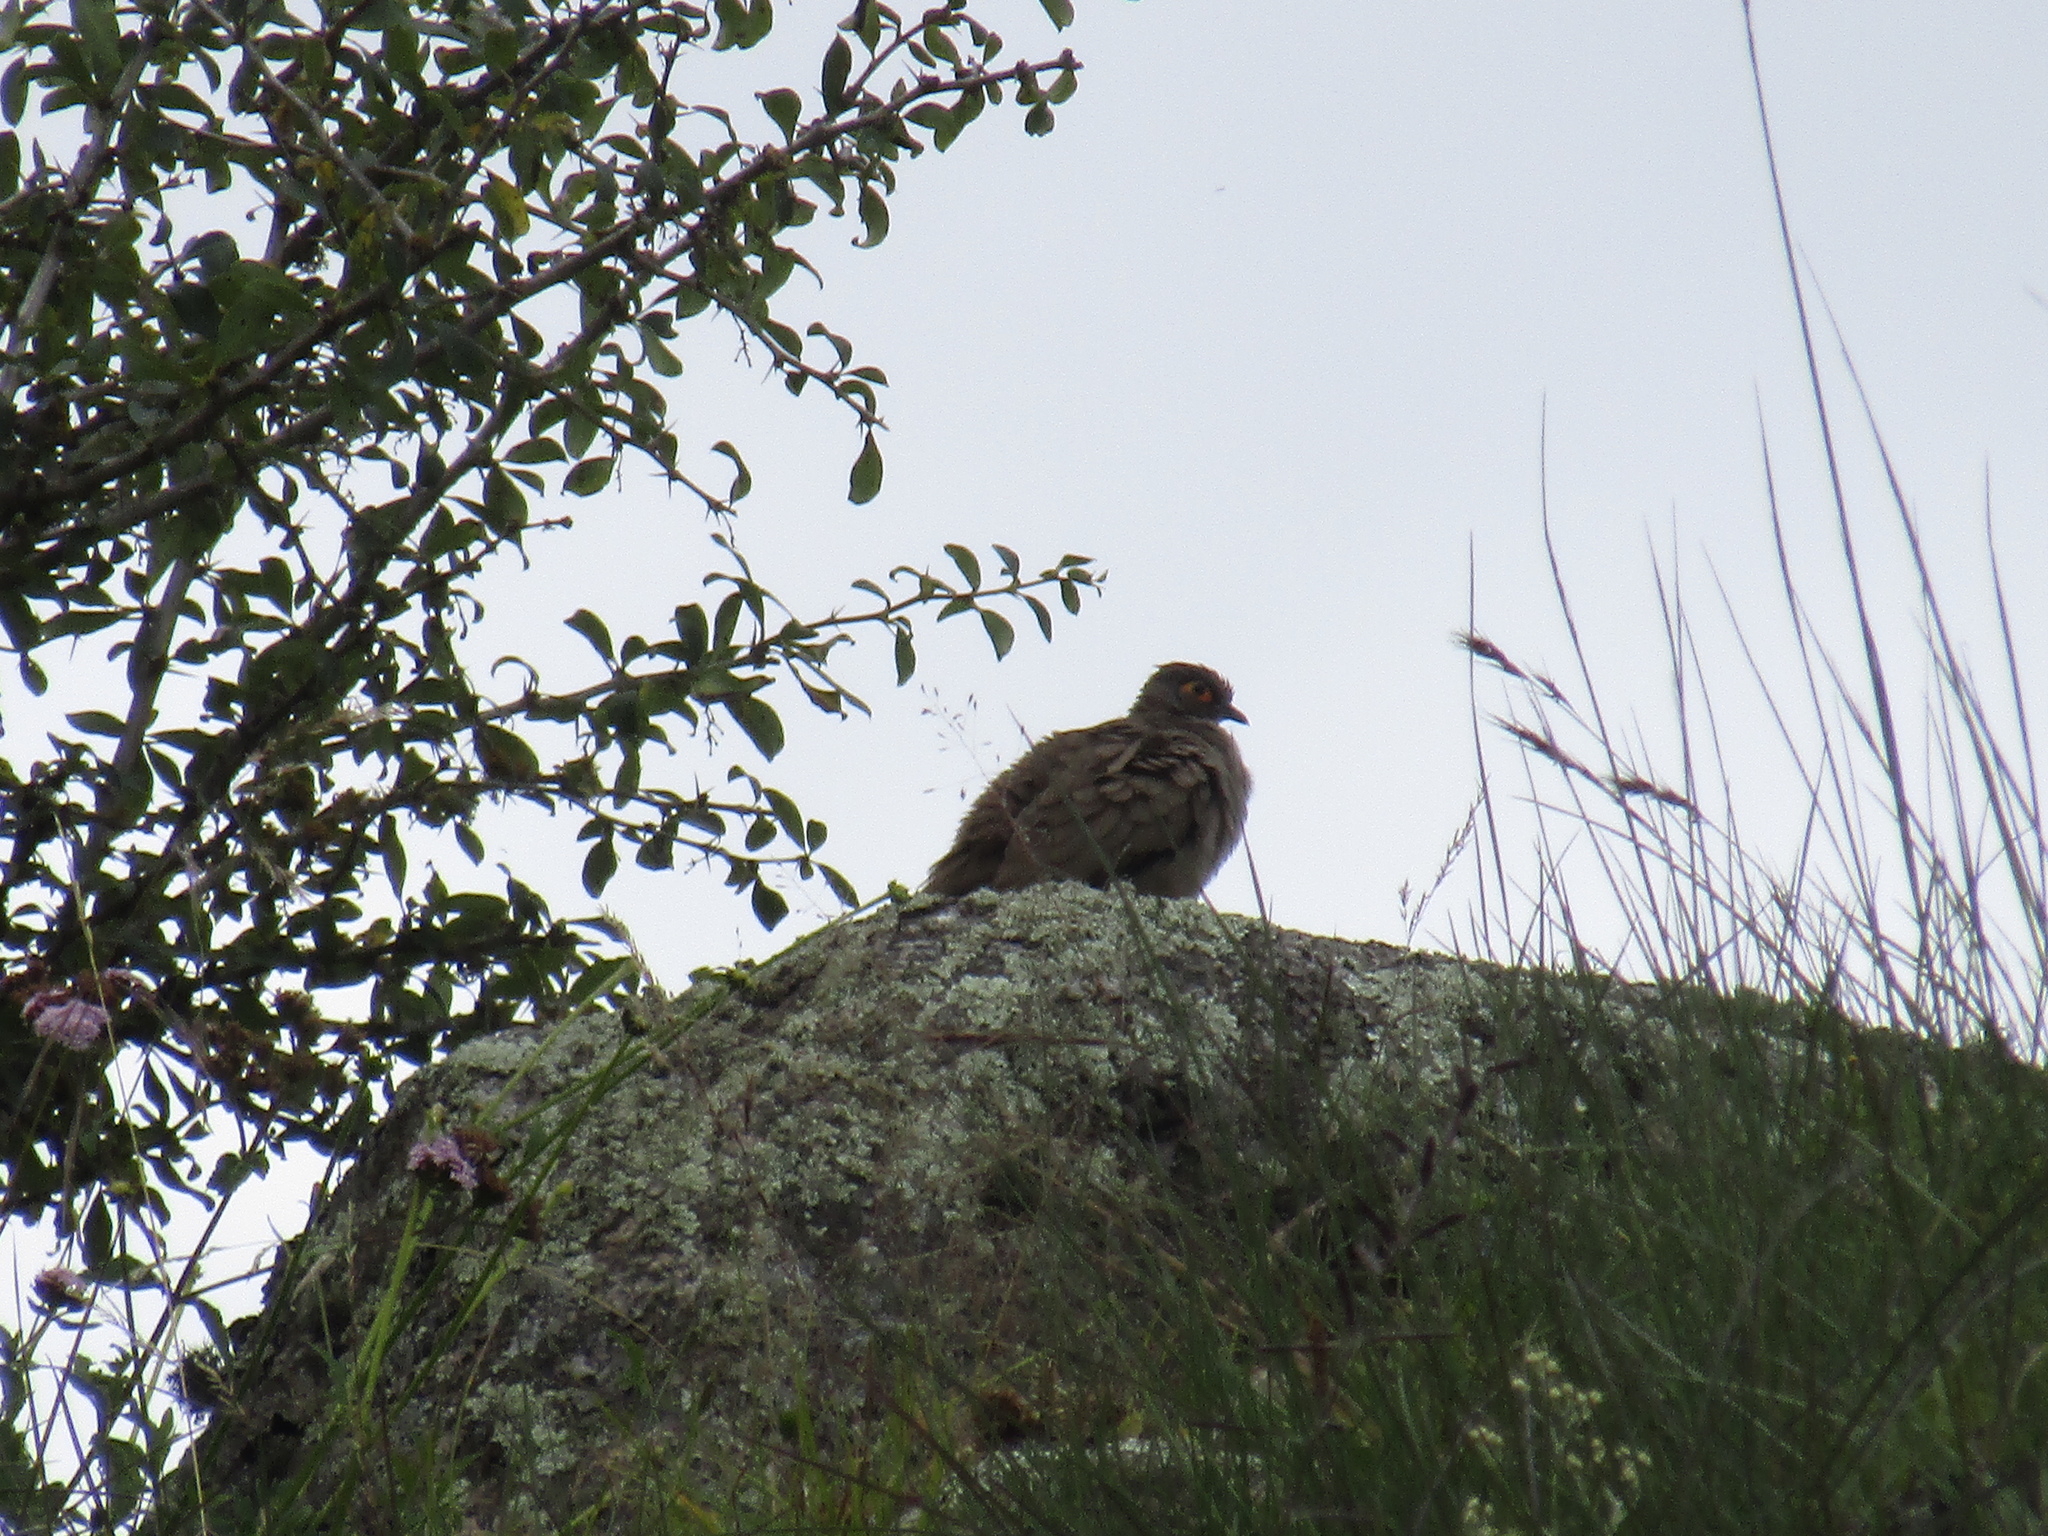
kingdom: Animalia
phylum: Chordata
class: Aves
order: Columbiformes
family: Columbidae
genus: Metriopelia
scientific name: Metriopelia morenoi
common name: Moreno's ground dove
